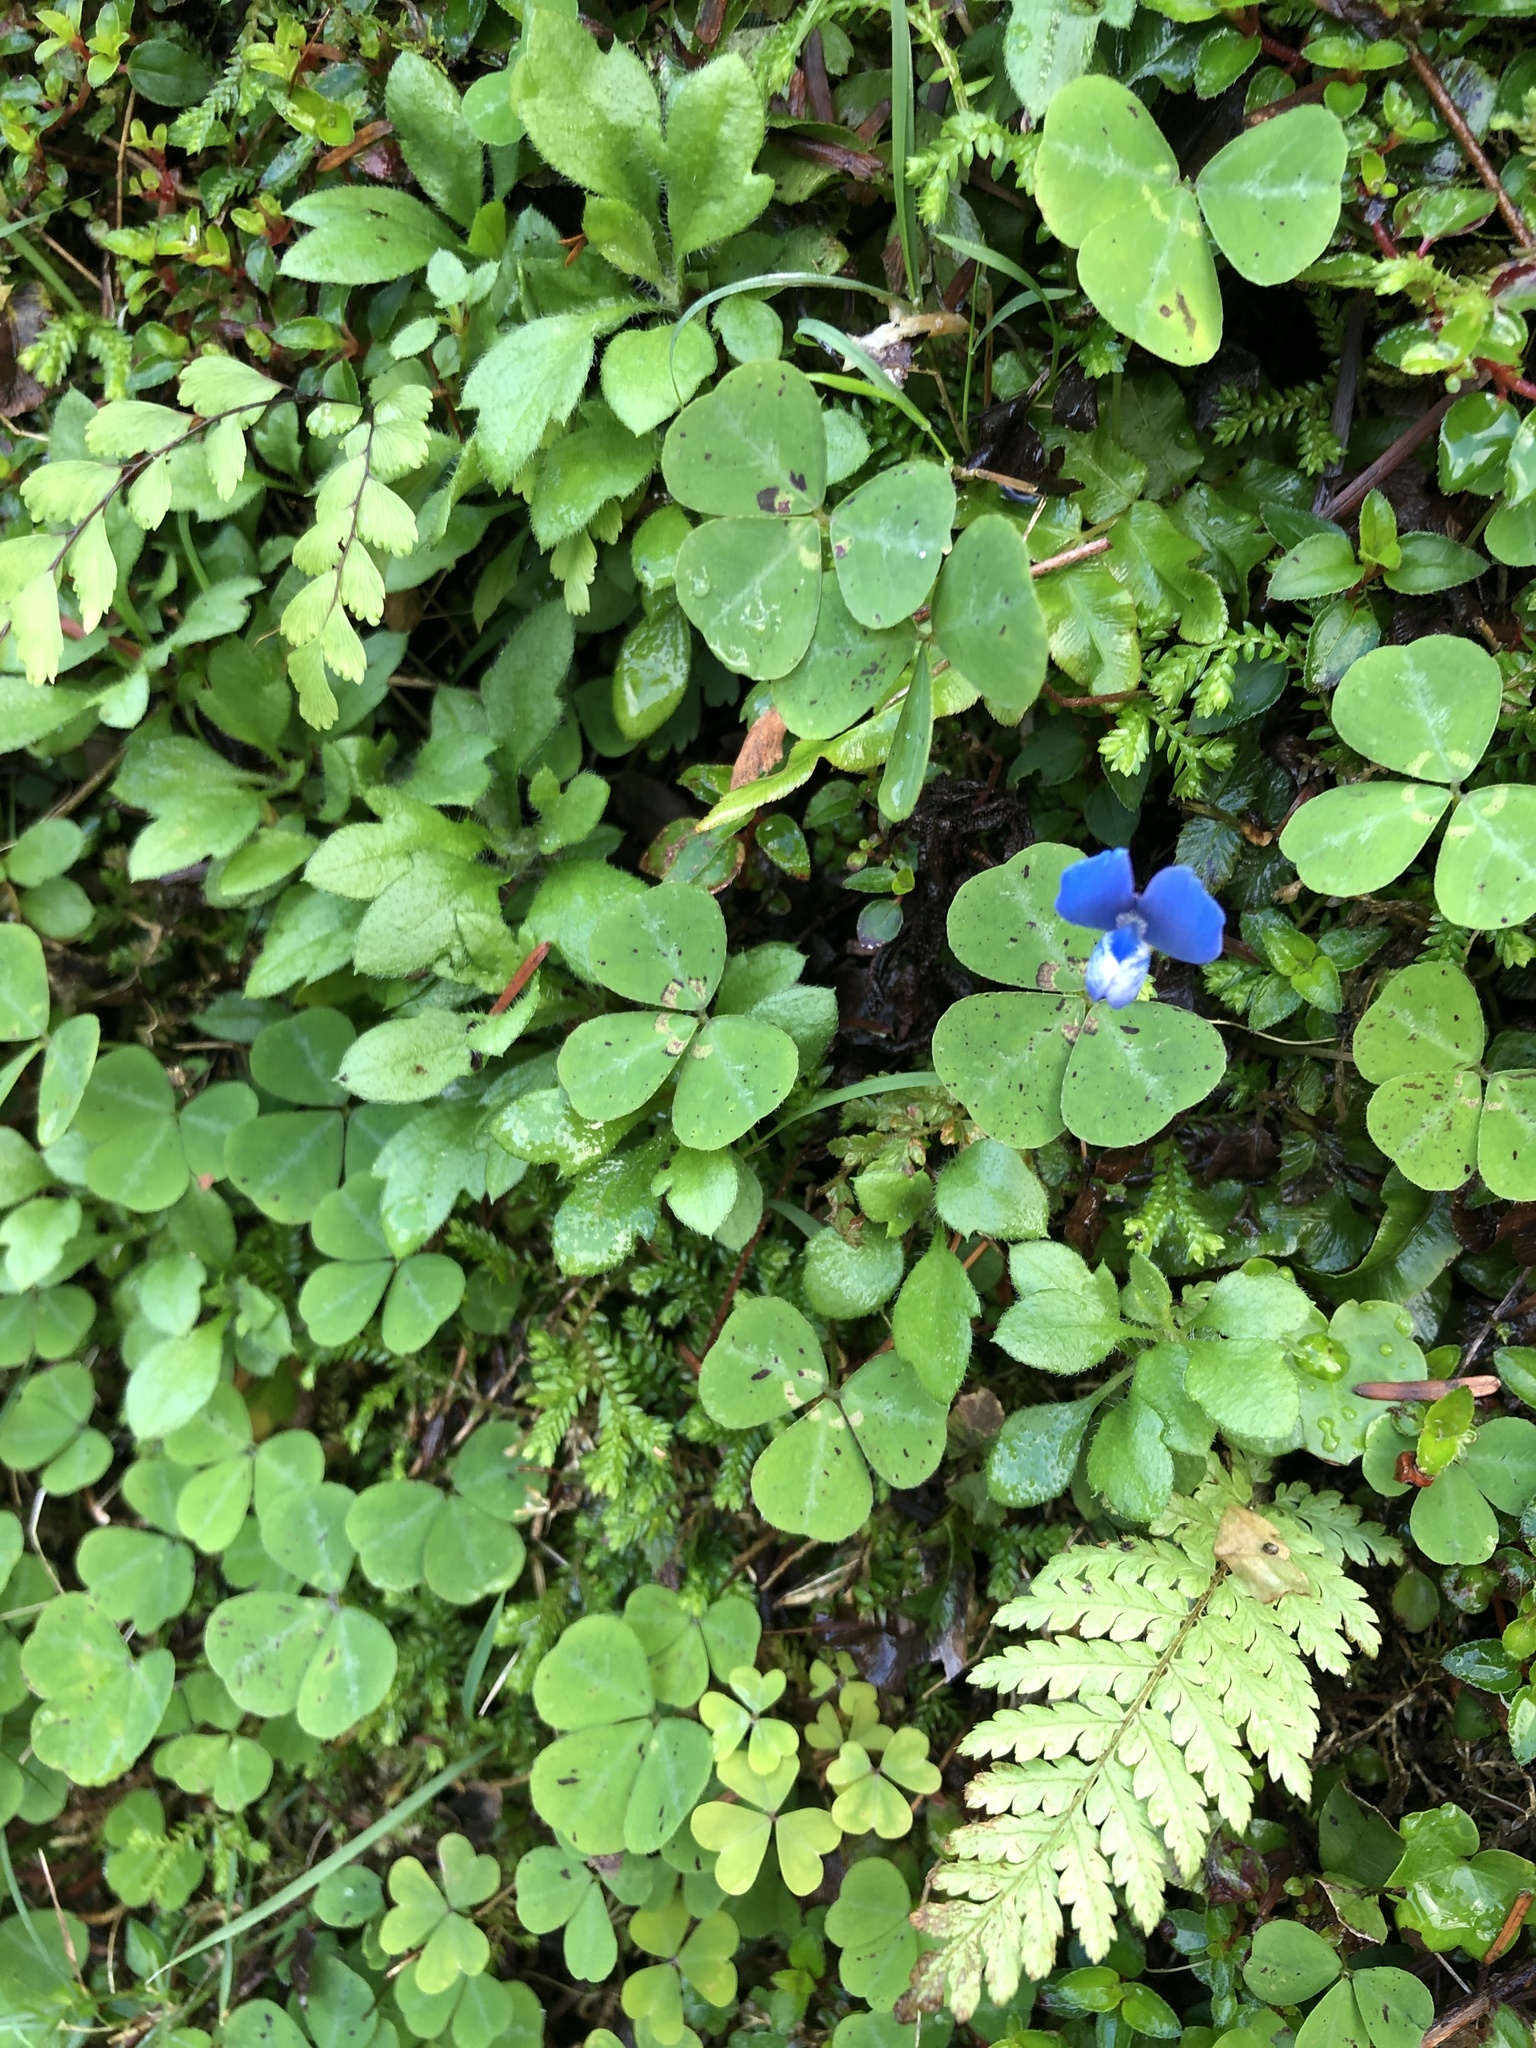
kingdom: Plantae
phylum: Tracheophyta
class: Magnoliopsida
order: Fabales
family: Fabaceae
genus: Parochetus
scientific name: Parochetus communis
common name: Blue oxalis
